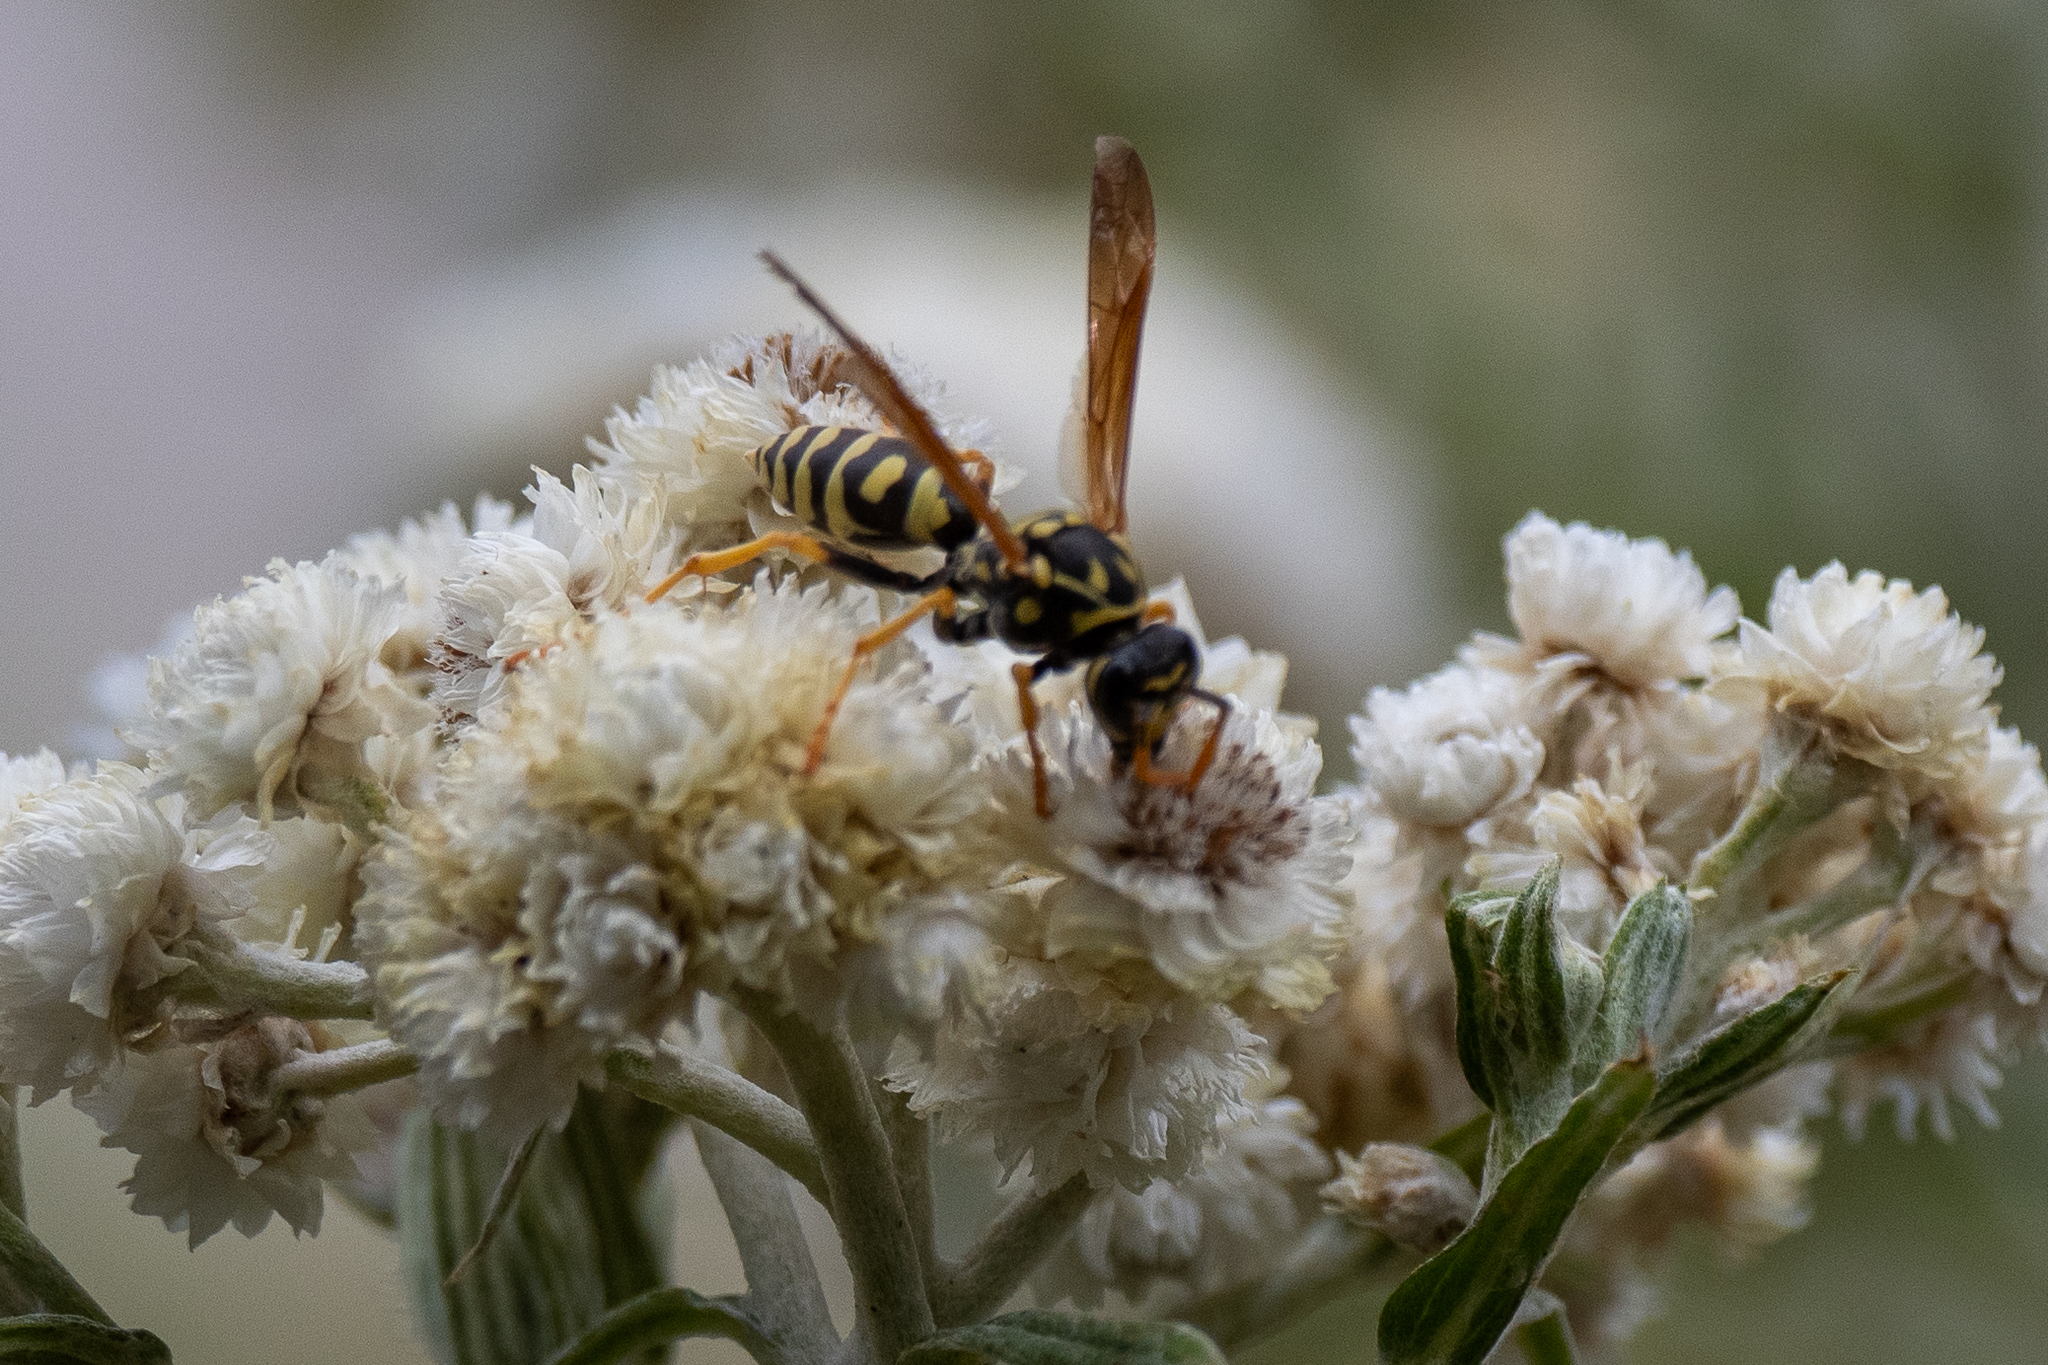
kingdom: Animalia
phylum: Arthropoda
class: Insecta
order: Hymenoptera
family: Eumenidae
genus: Polistes
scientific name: Polistes dominula
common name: Paper wasp
